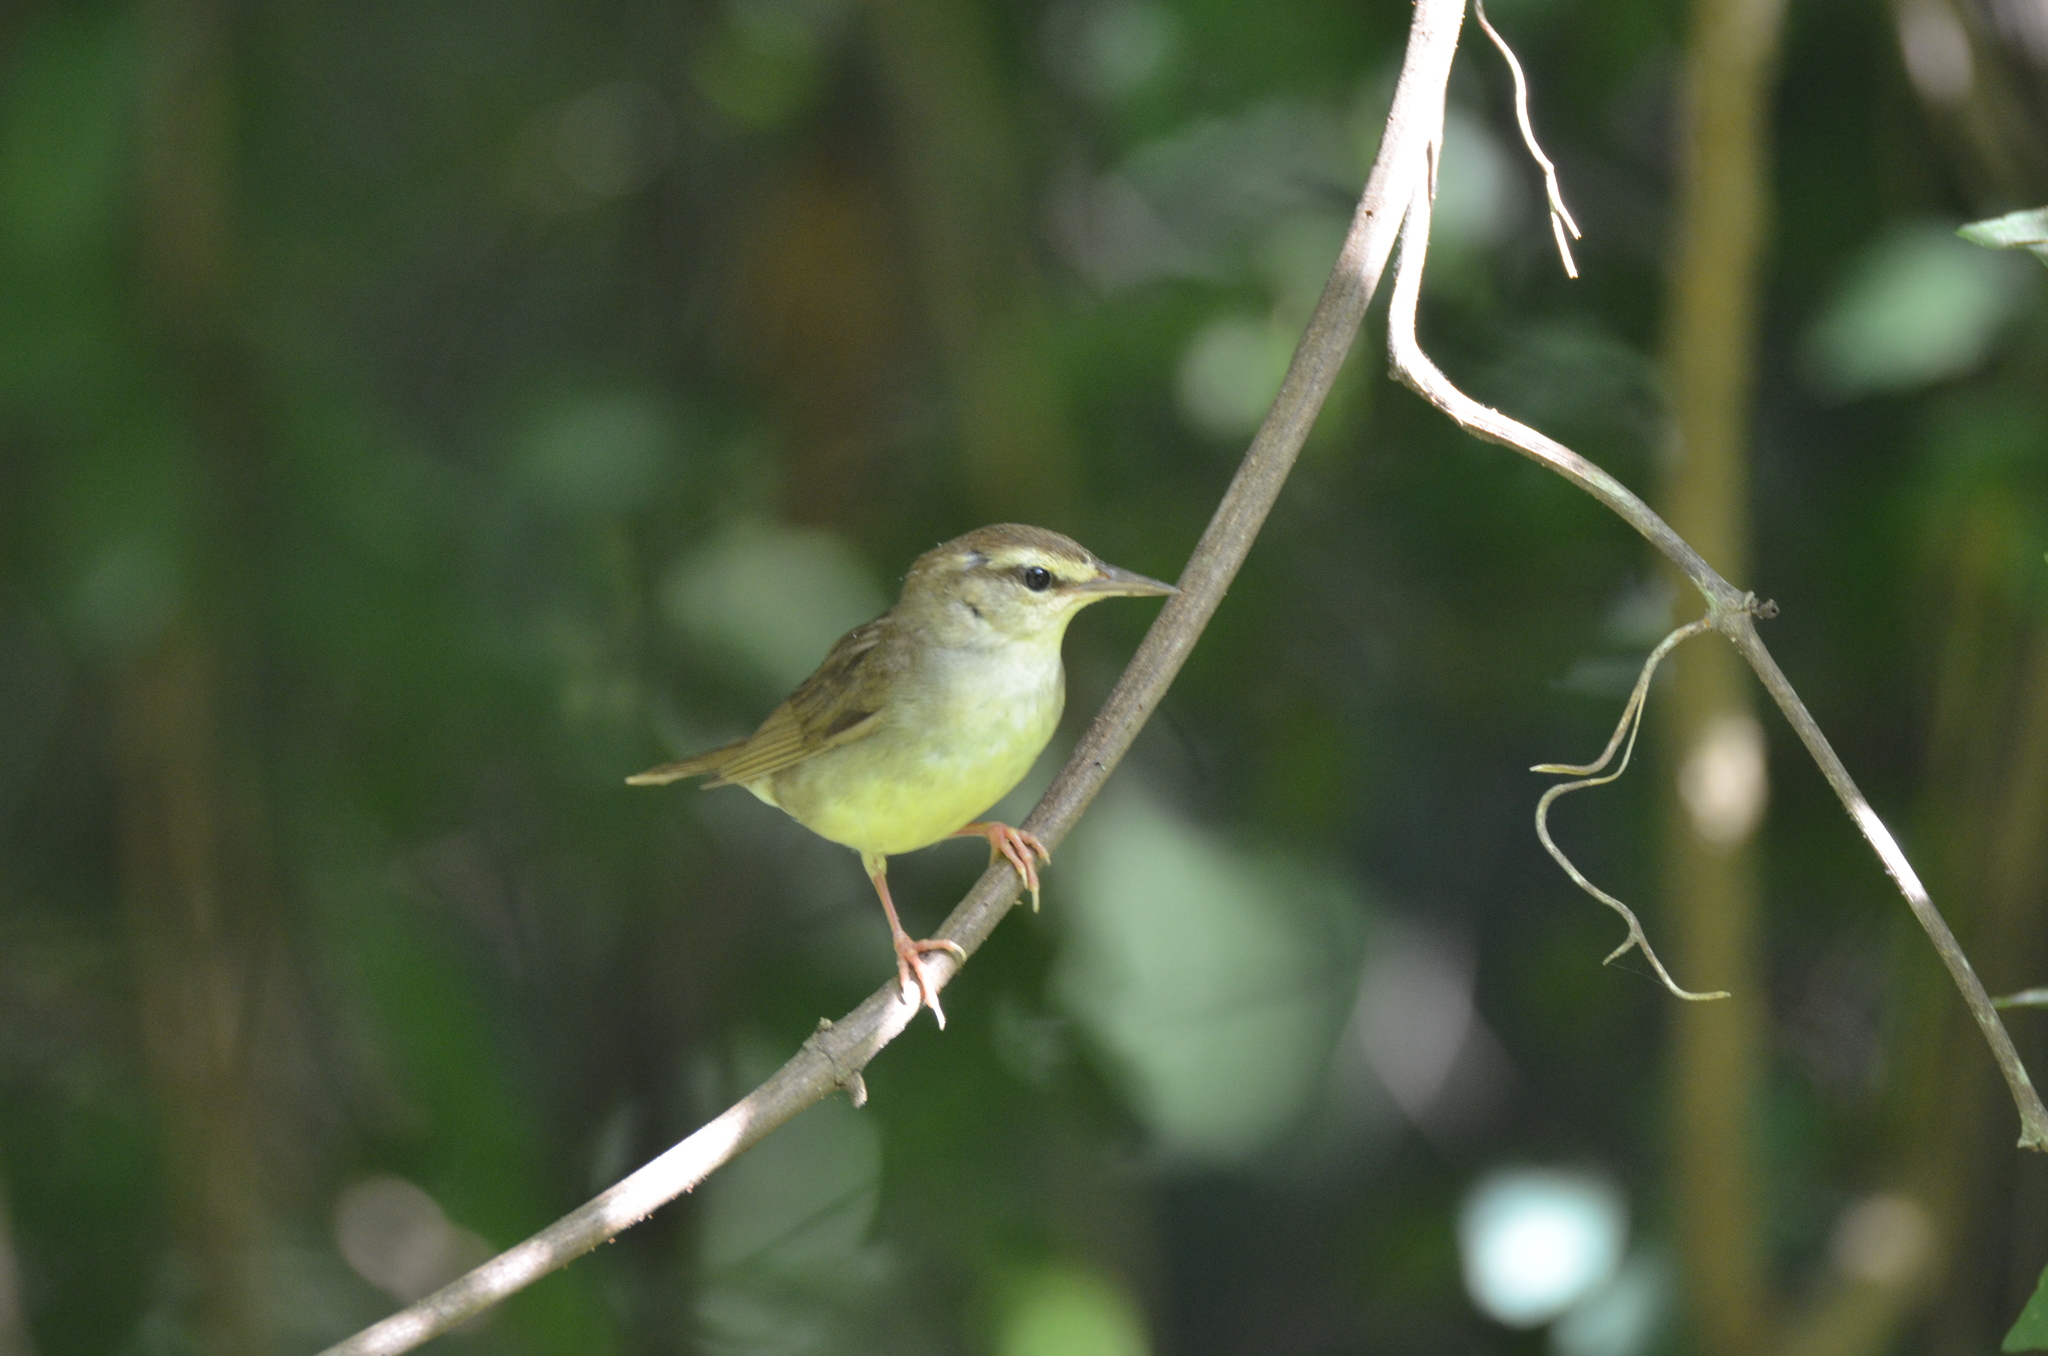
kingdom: Animalia
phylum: Chordata
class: Aves
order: Passeriformes
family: Parulidae
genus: Limnothlypis
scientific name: Limnothlypis swainsonii
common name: Swainson's warbler
